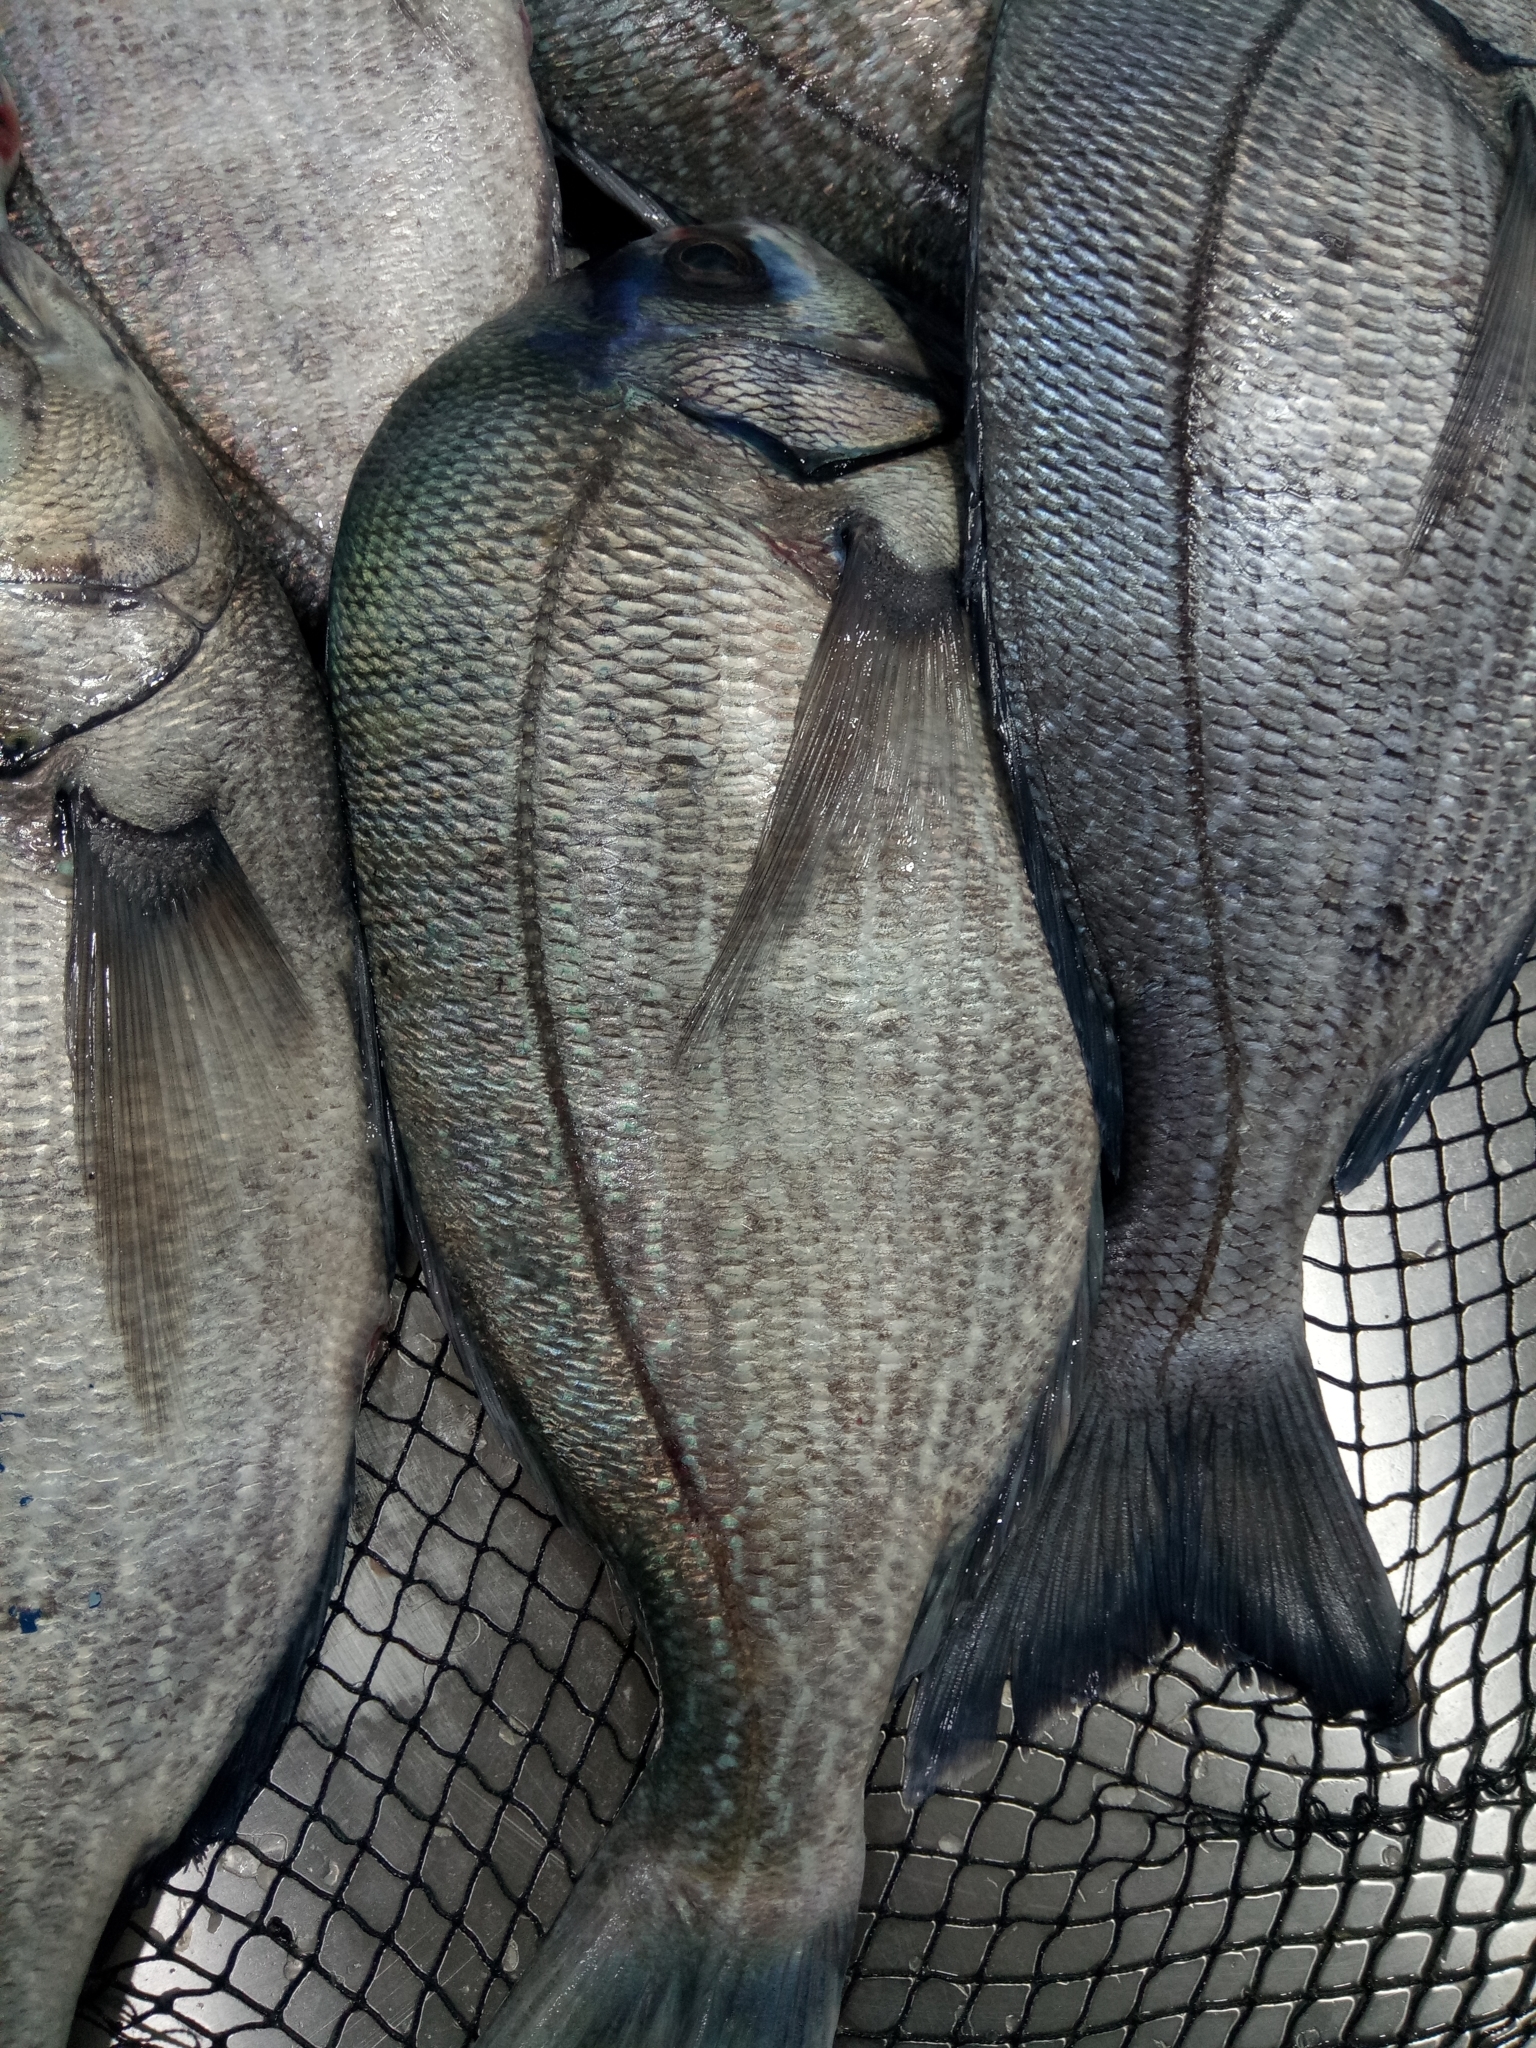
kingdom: Animalia
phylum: Chordata
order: Perciformes
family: Sparidae
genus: Spondyliosoma
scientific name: Spondyliosoma cantharus
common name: Black seabream
